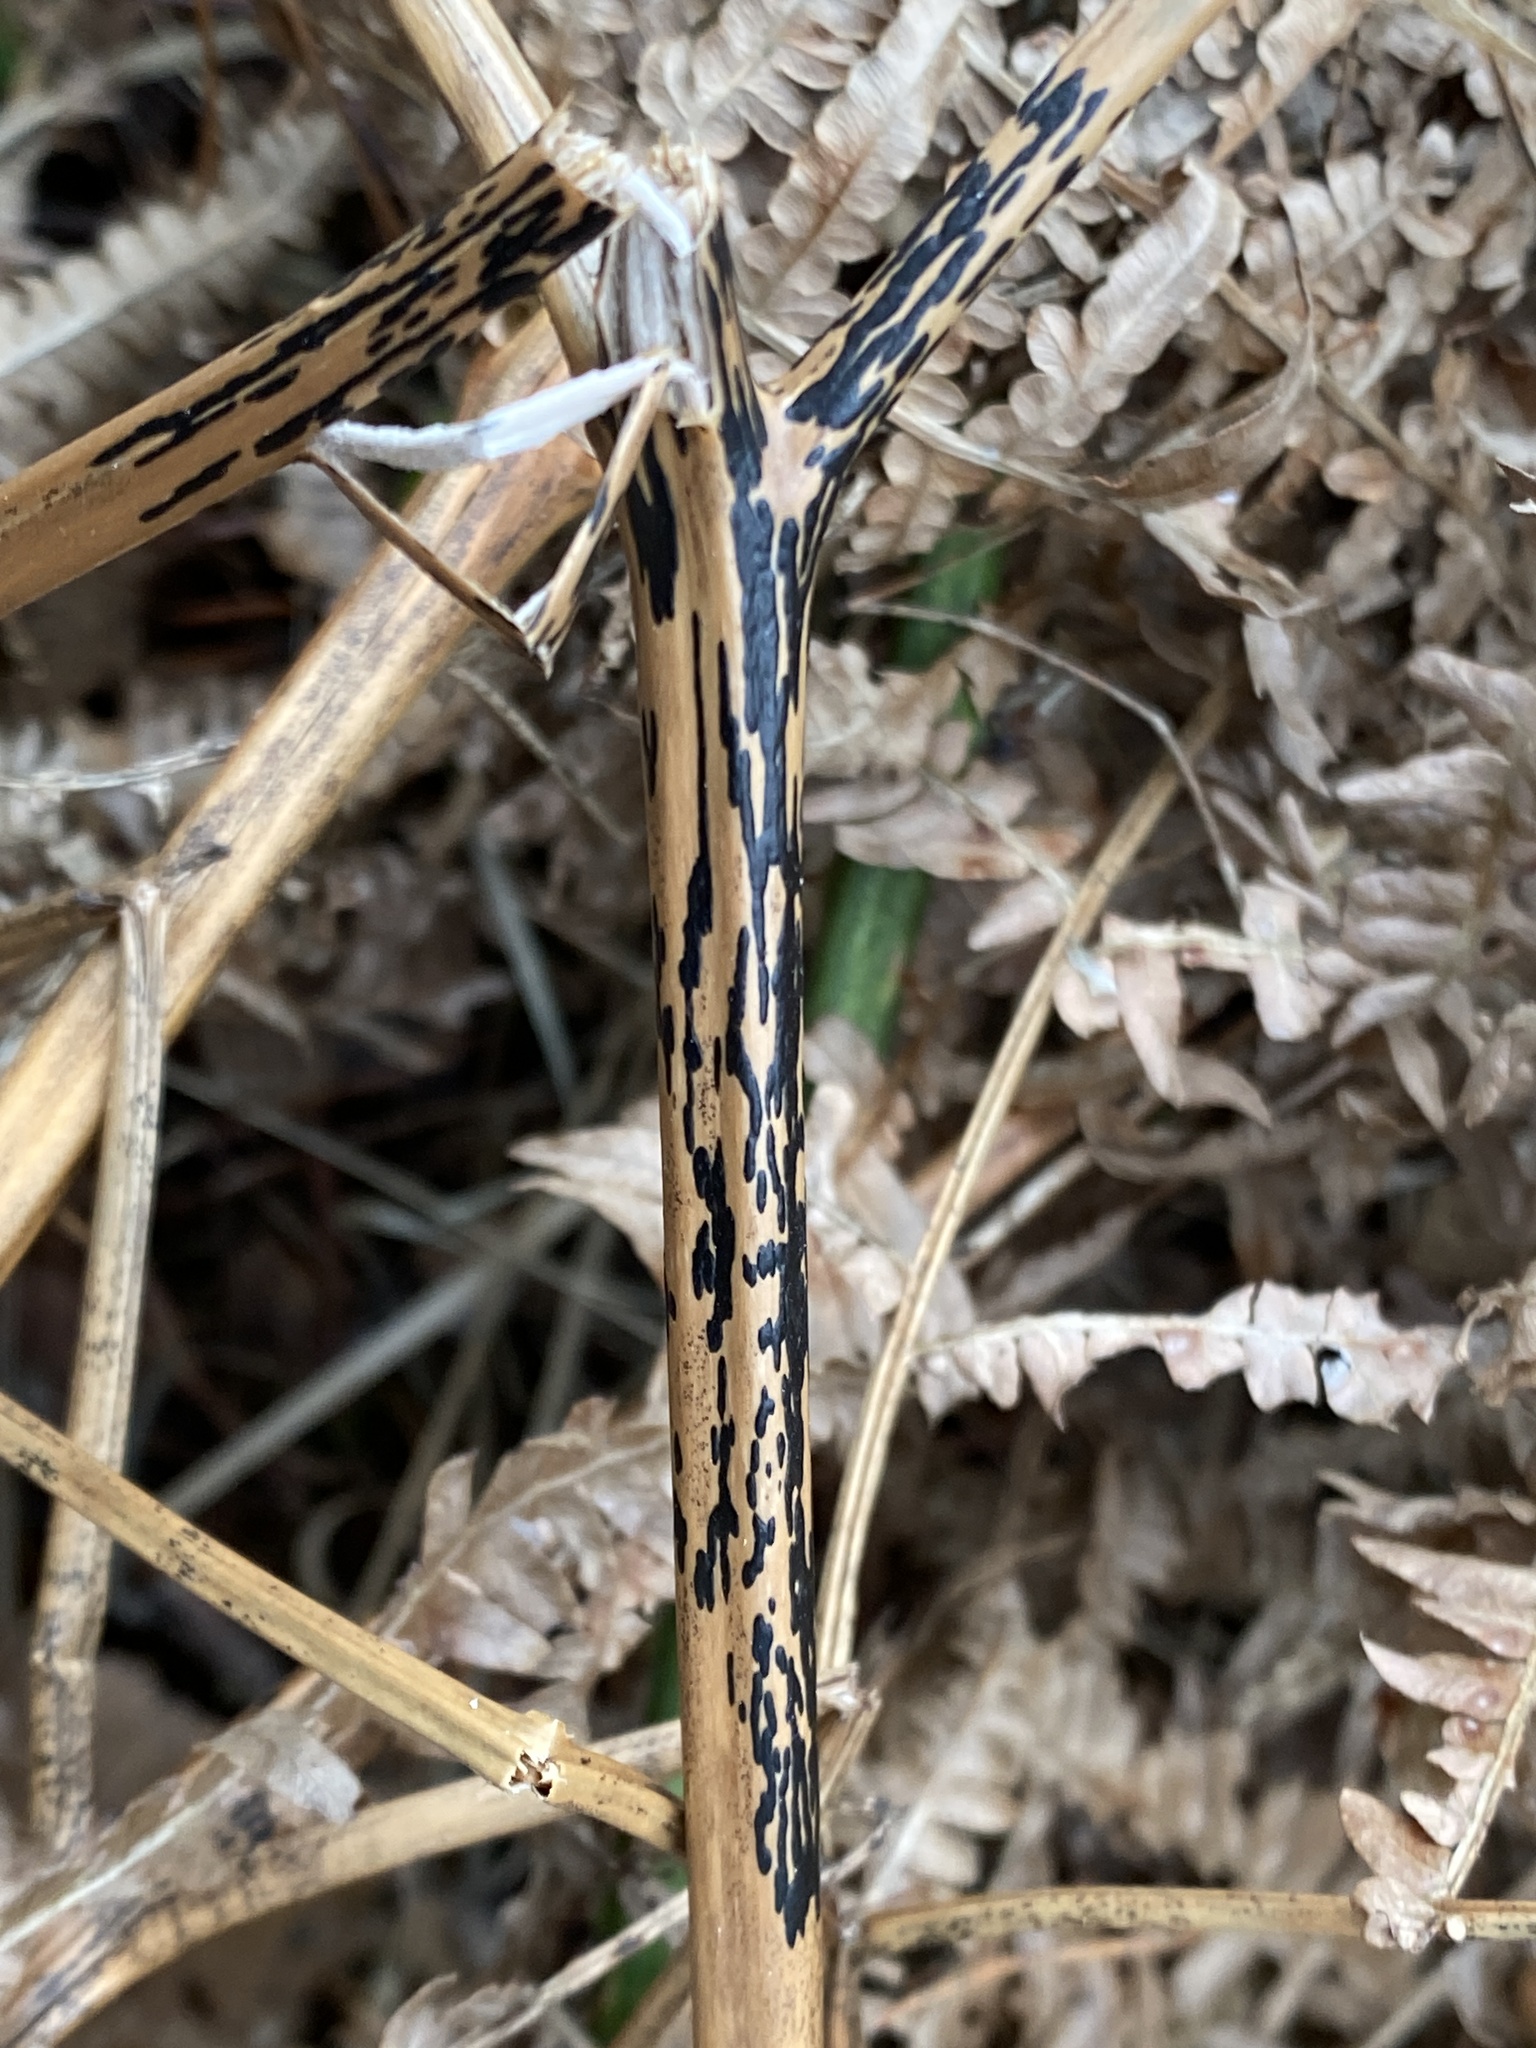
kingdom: Fungi
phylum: Ascomycota
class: Dothideomycetes
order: Pleosporales
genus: Rhopographus
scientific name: Rhopographus filicinus
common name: Bracken map
